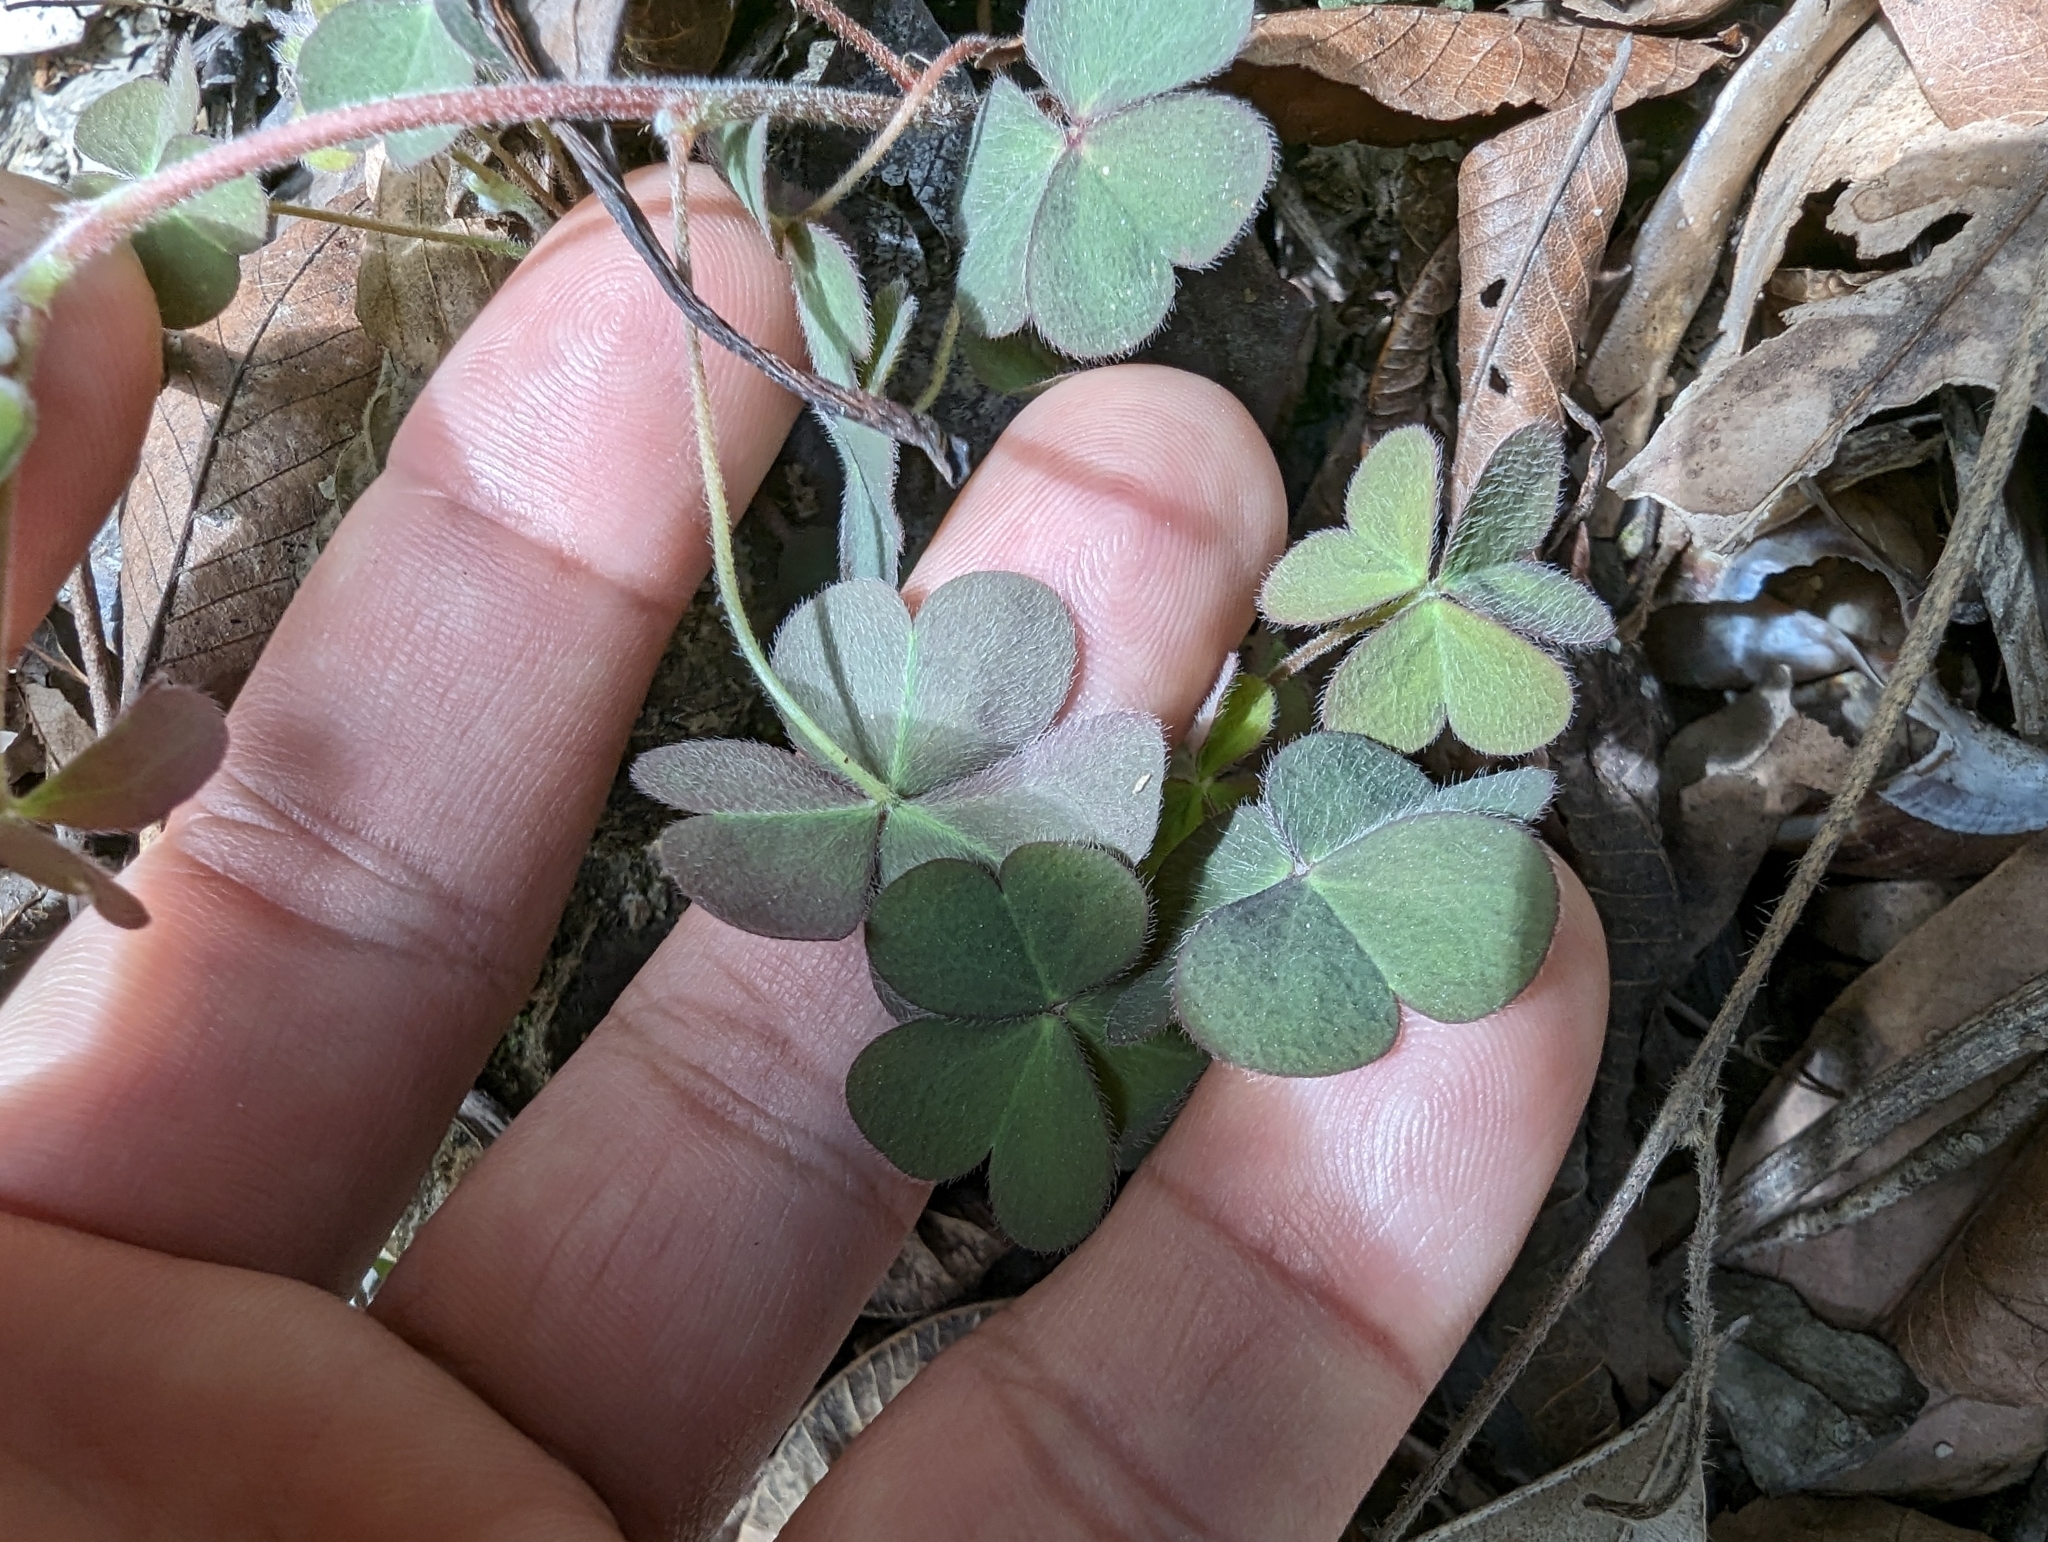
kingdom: Plantae
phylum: Tracheophyta
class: Magnoliopsida
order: Oxalidales
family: Oxalidaceae
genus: Oxalis
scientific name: Oxalis corniculata
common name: Procumbent yellow-sorrel
